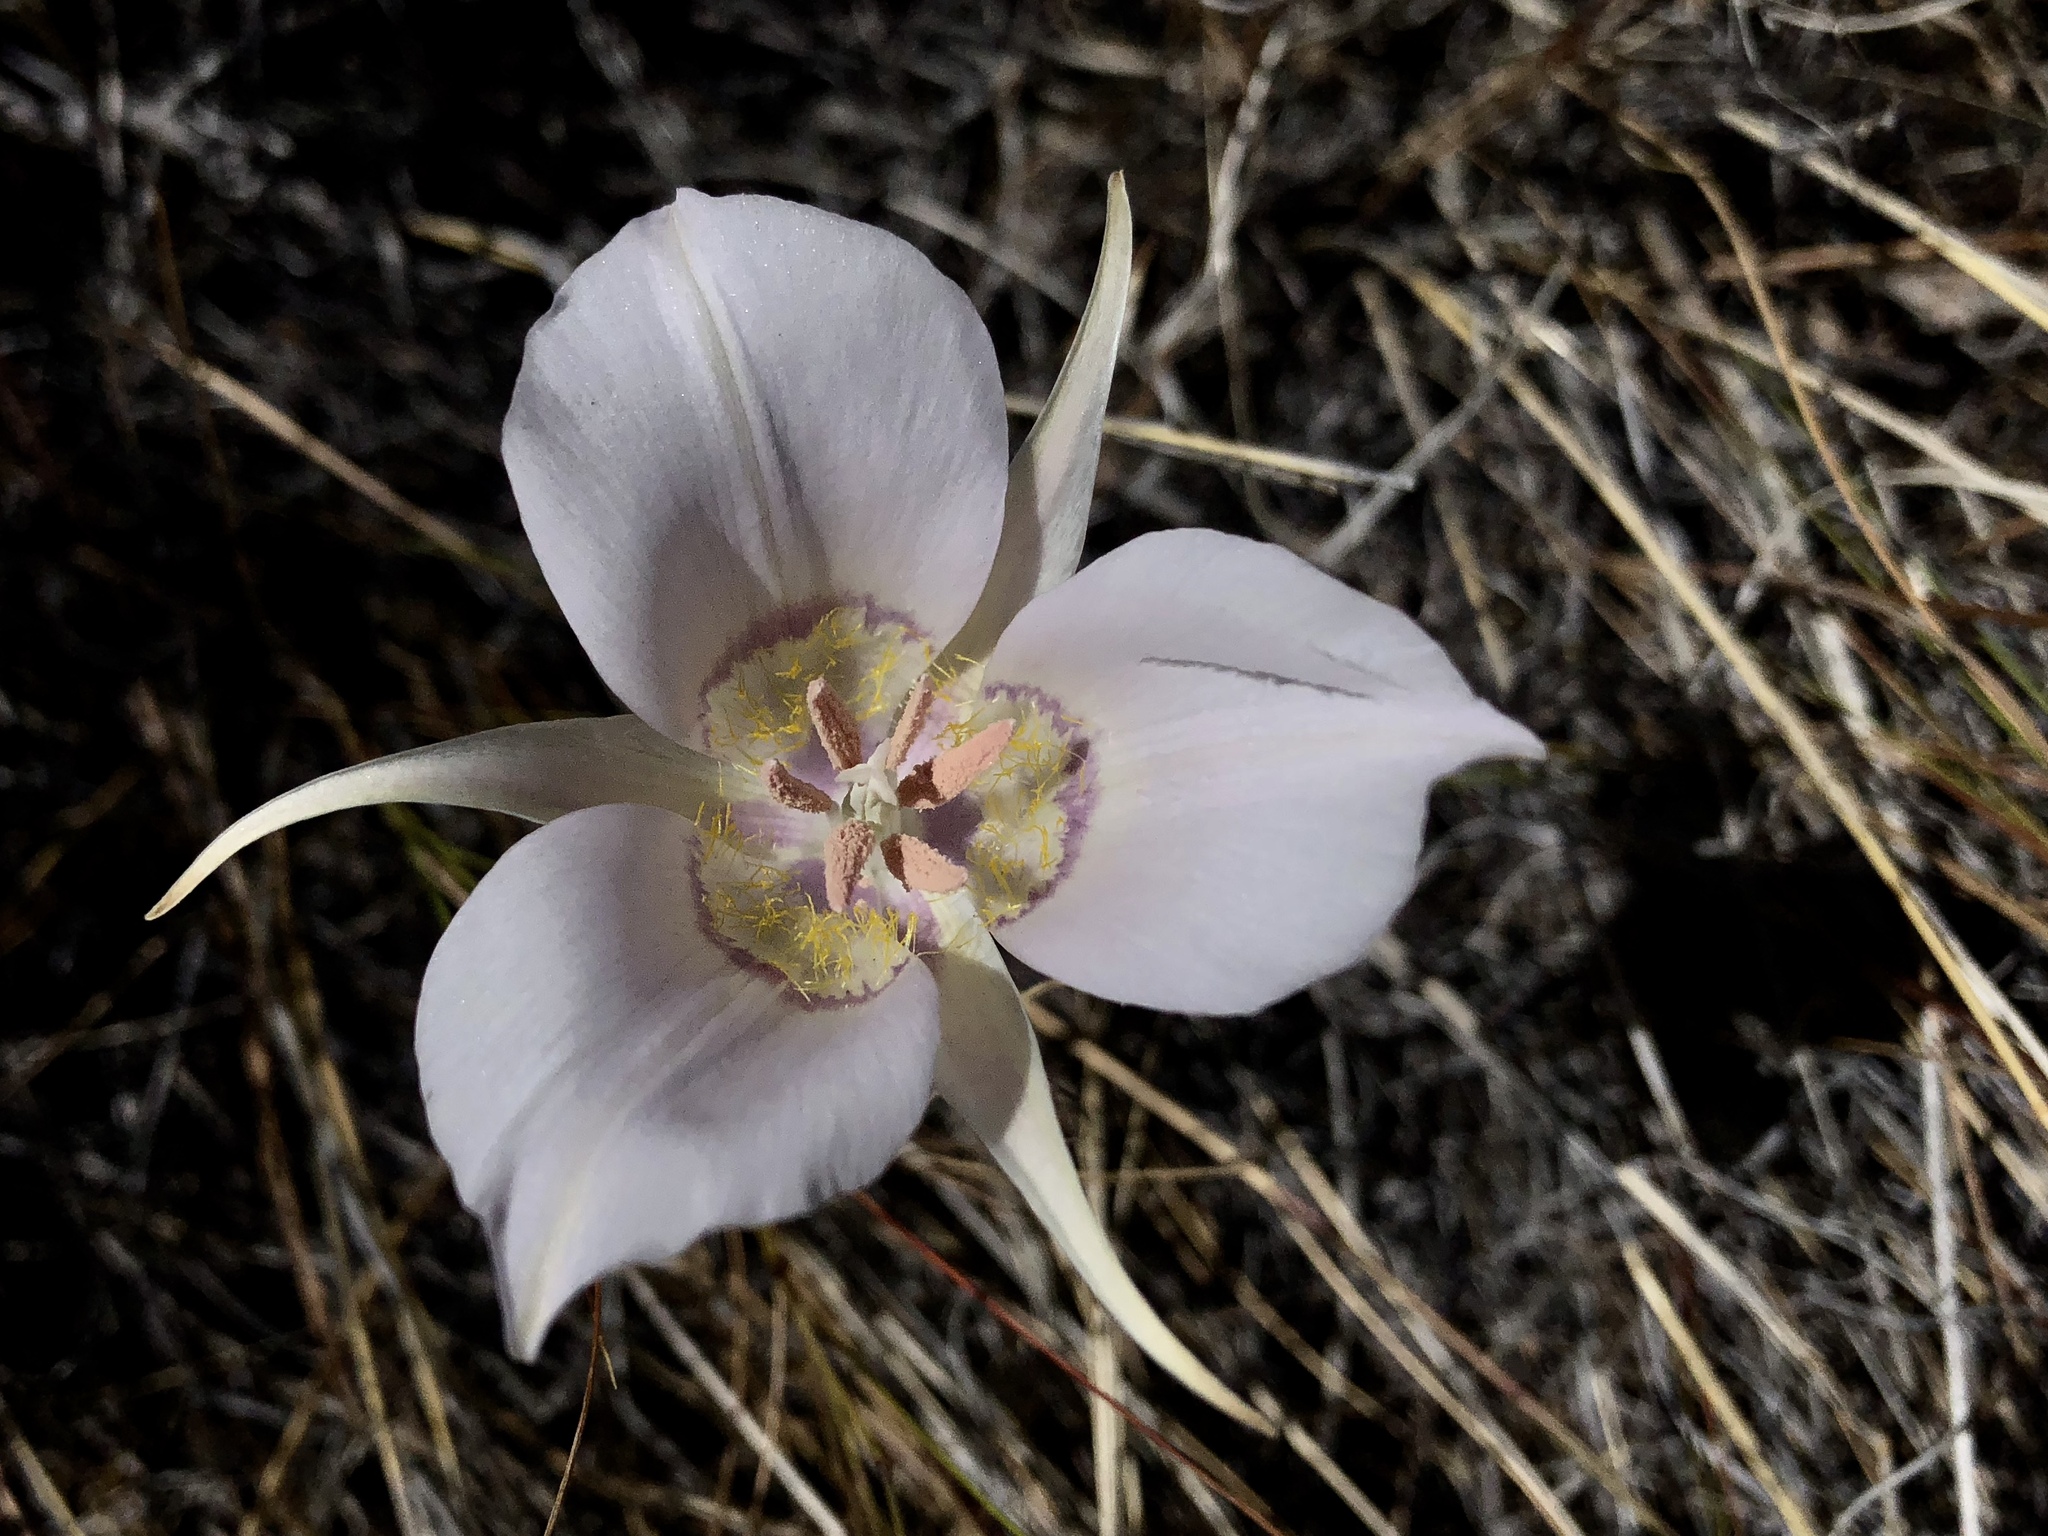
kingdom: Plantae
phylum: Tracheophyta
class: Liliopsida
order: Liliales
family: Liliaceae
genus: Calochortus
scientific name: Calochortus macrocarpus
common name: Green-band mariposa lily
